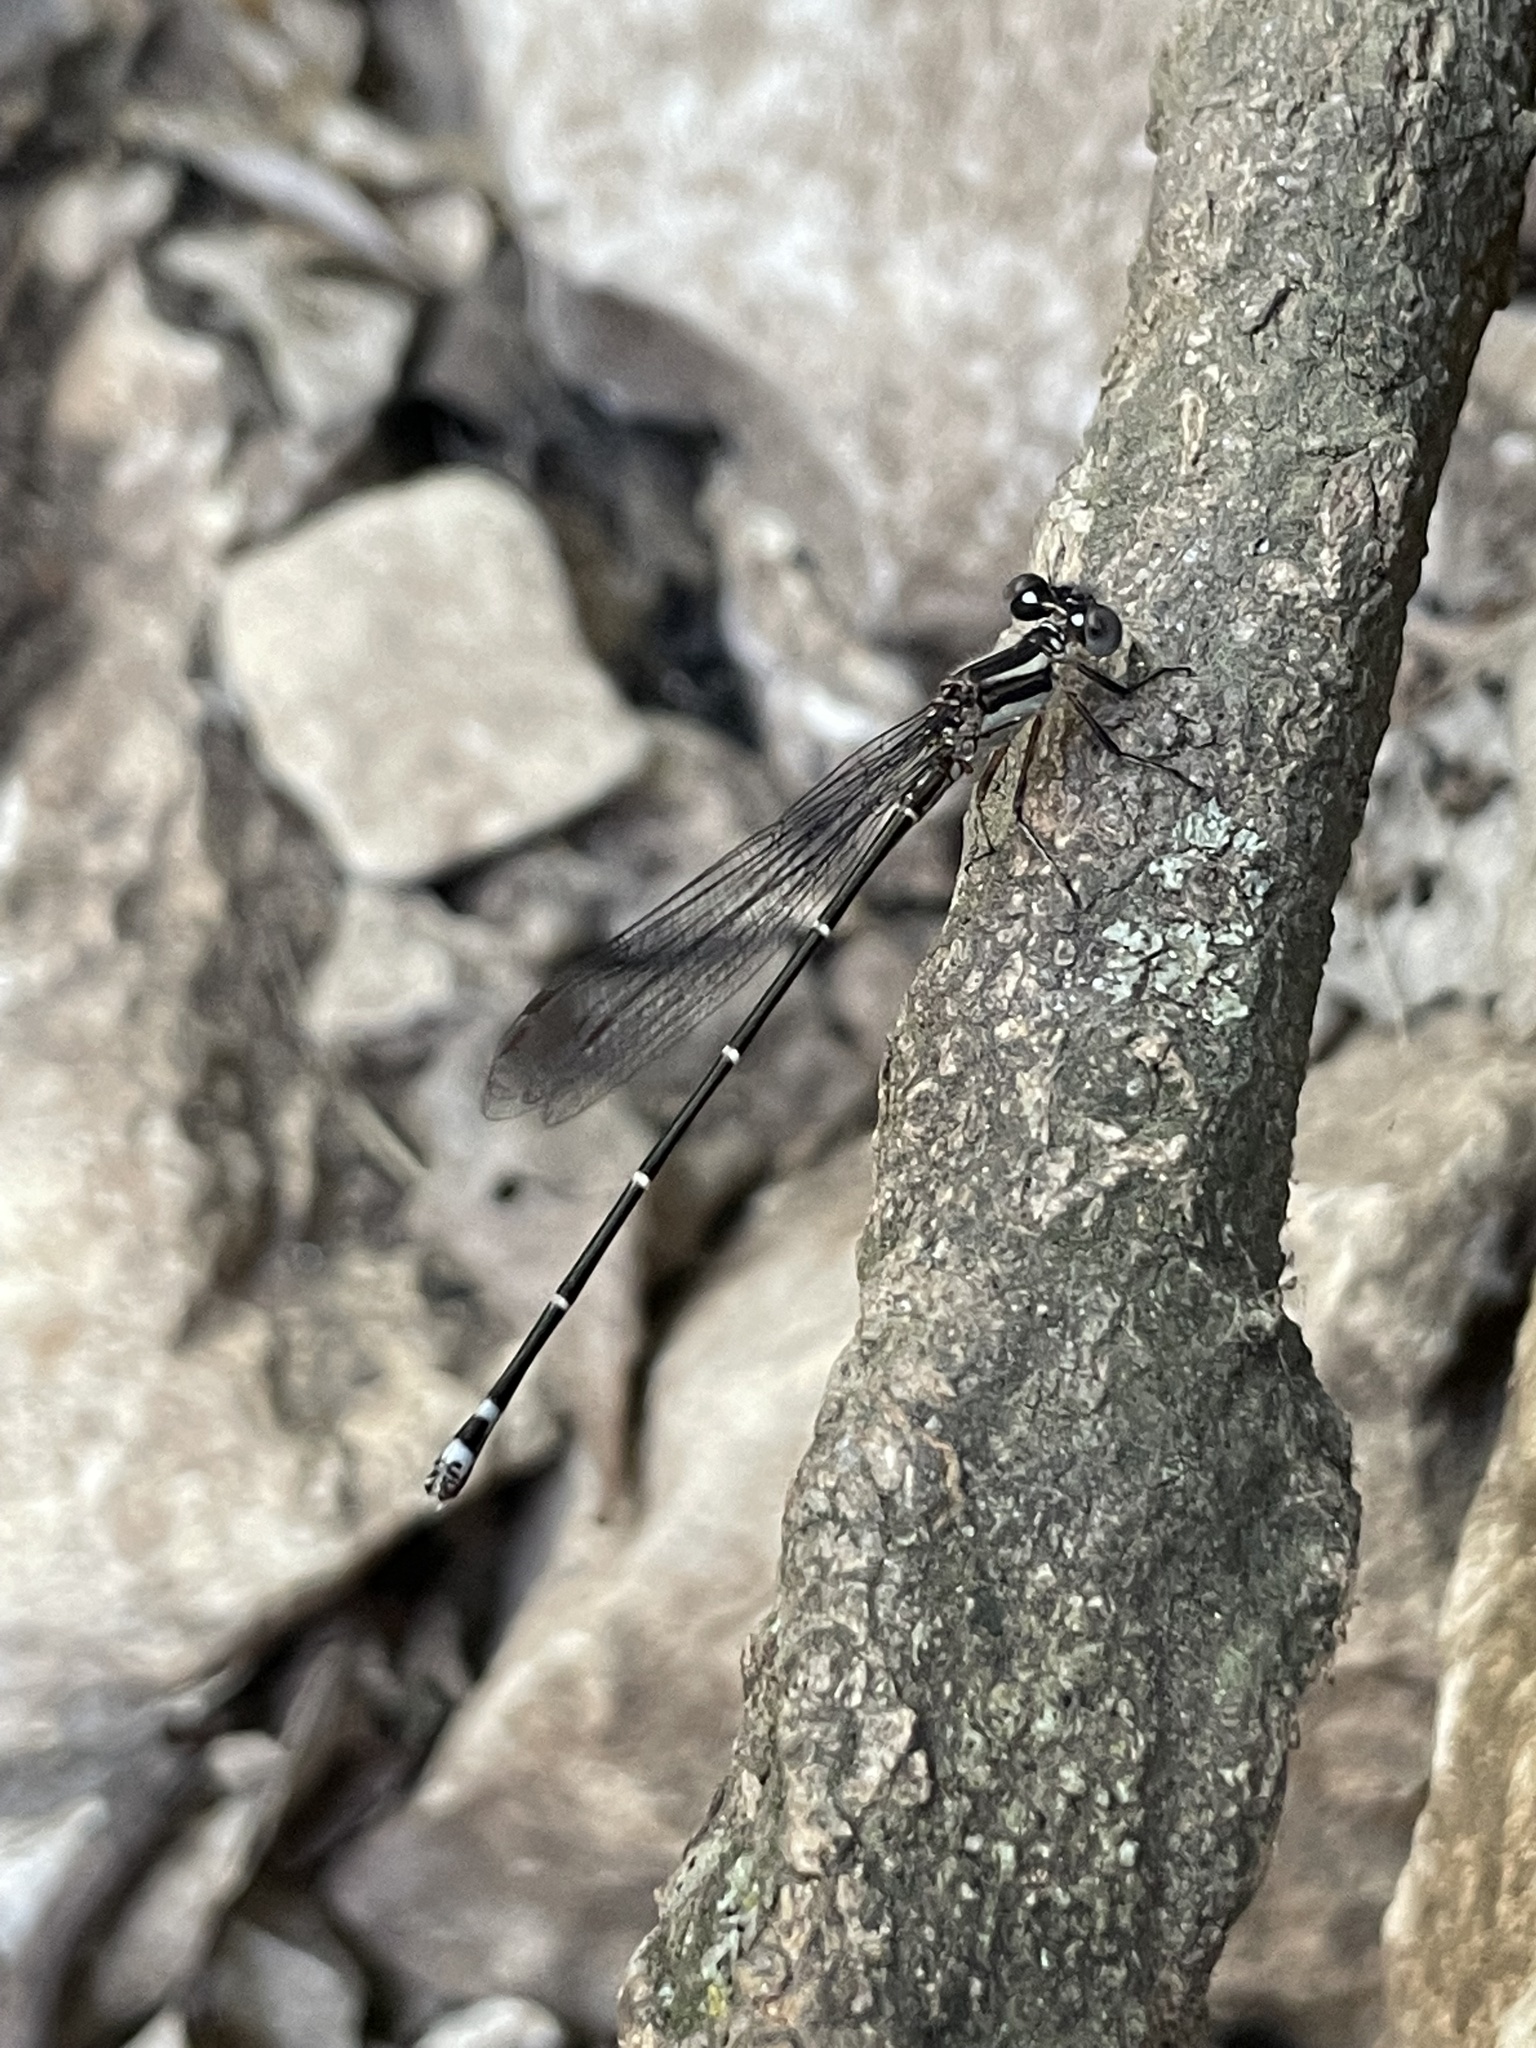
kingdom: Animalia
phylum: Arthropoda
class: Insecta
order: Odonata
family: Coenagrionidae
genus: Argia
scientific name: Argia translata
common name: Dusky dancer
